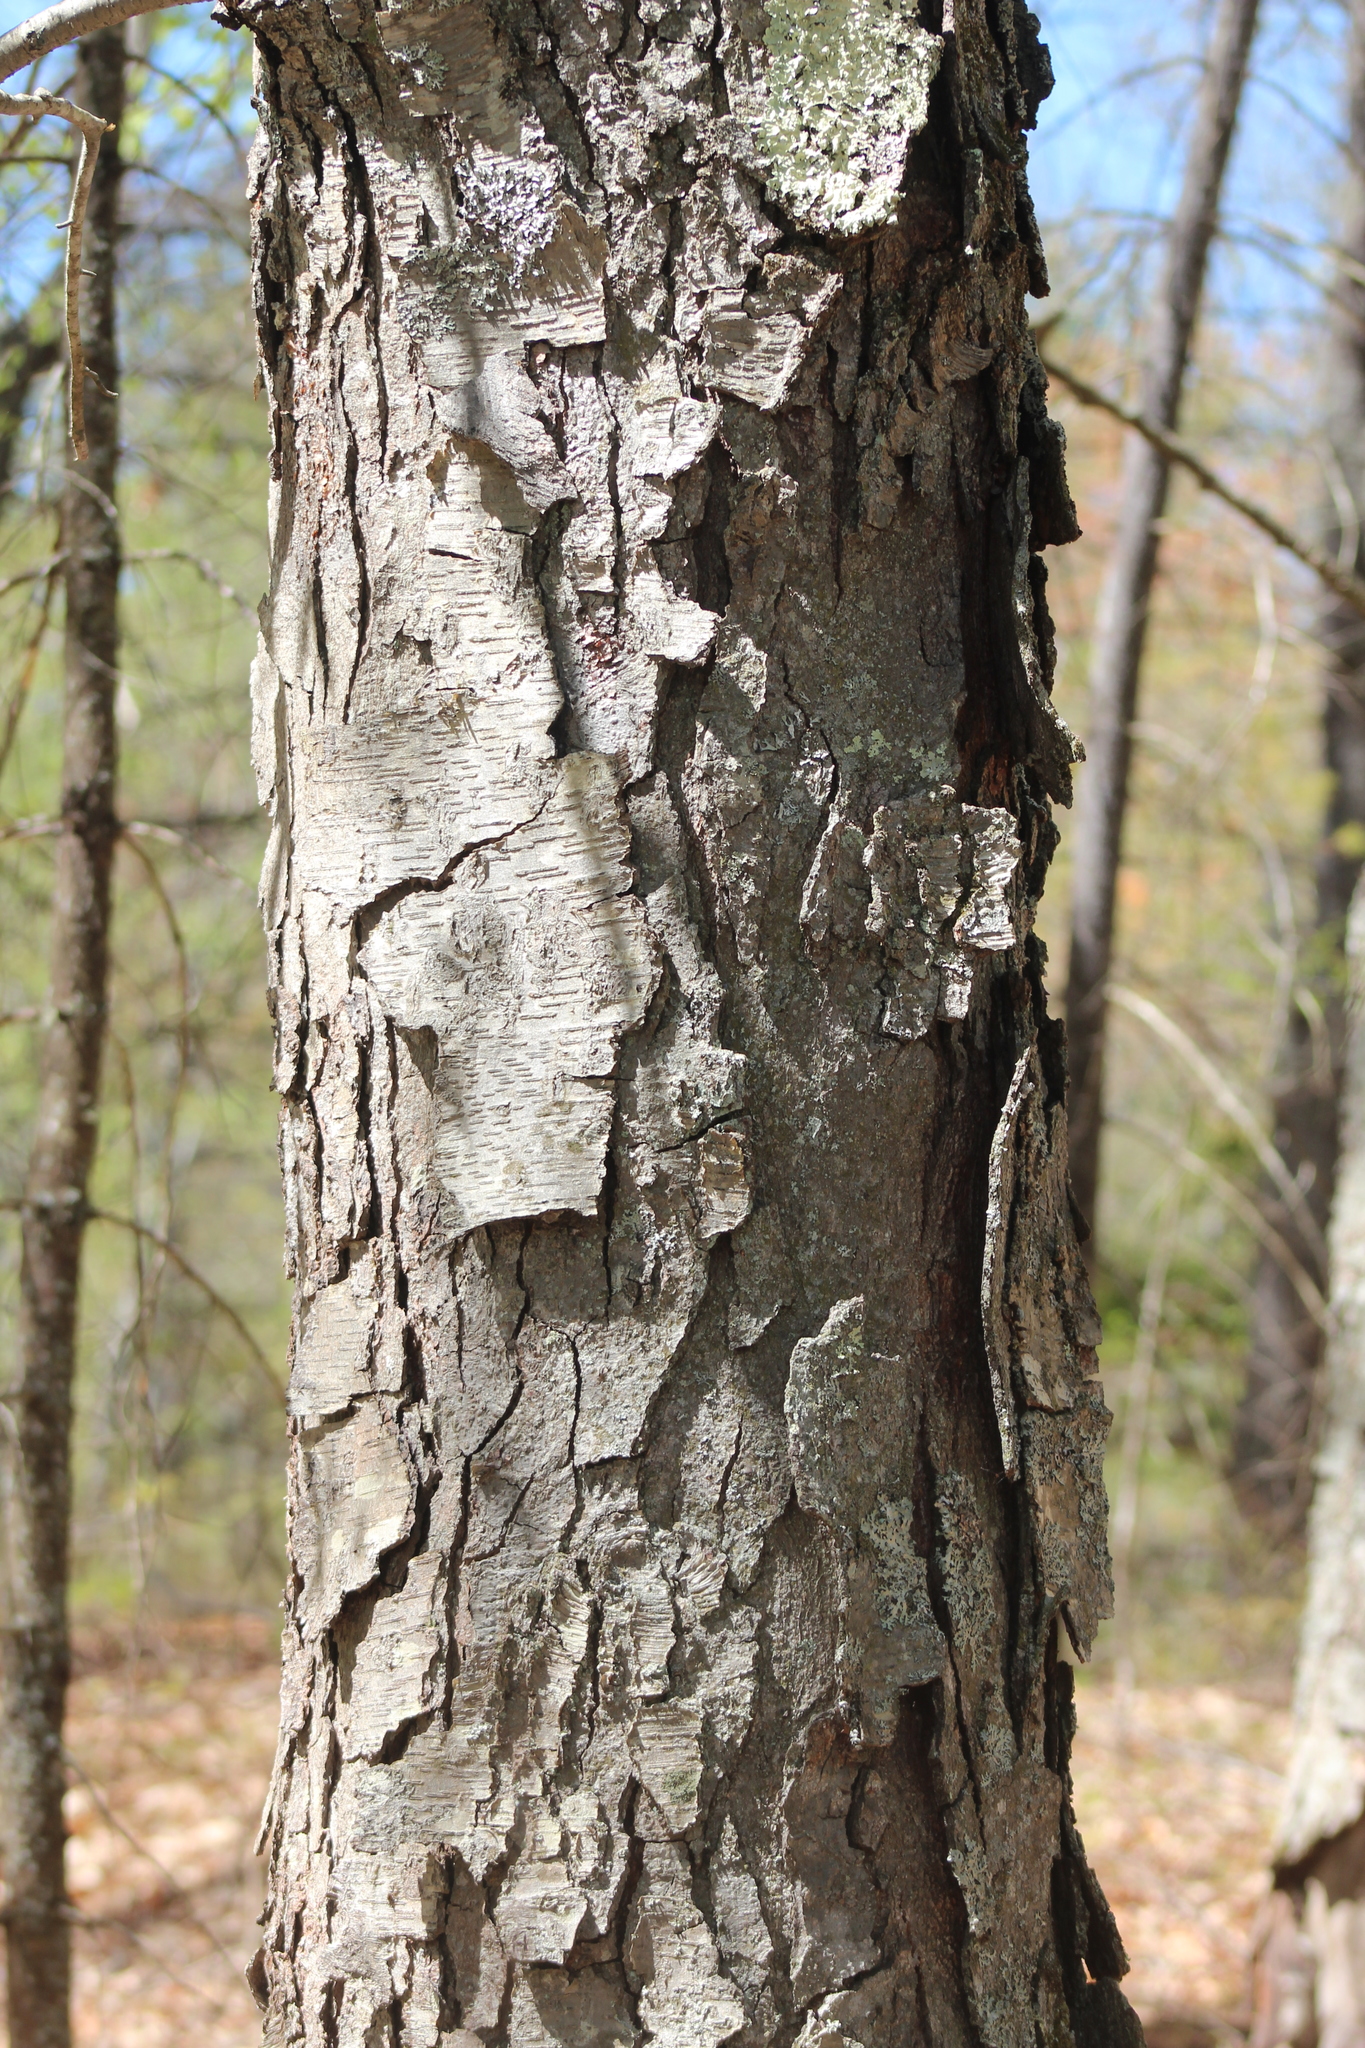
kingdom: Plantae
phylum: Tracheophyta
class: Magnoliopsida
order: Fagales
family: Betulaceae
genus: Betula
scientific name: Betula lenta
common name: Black birch
